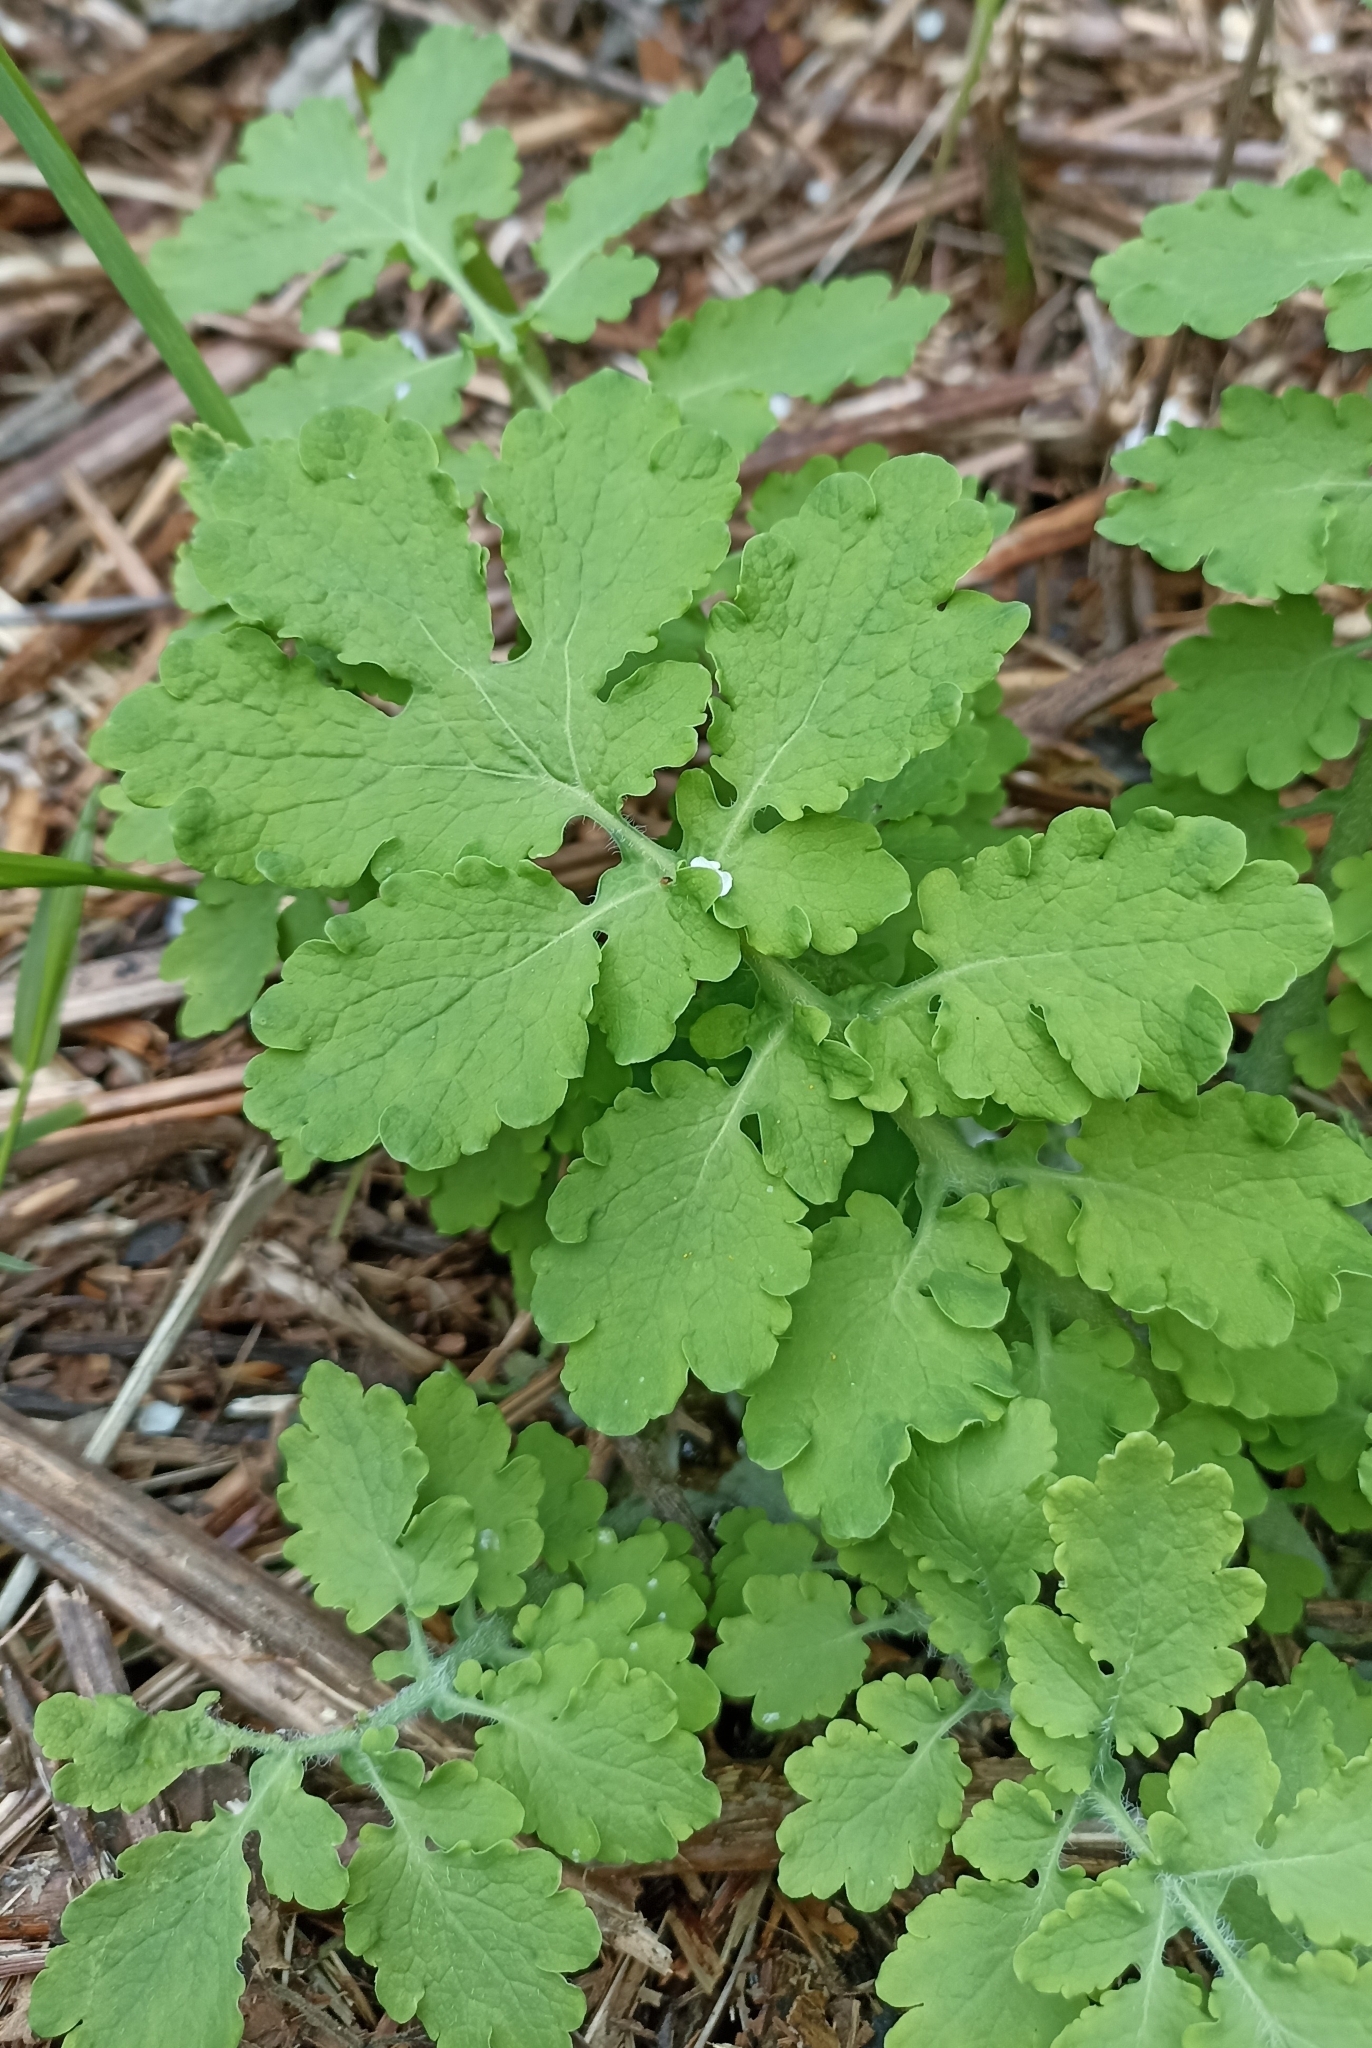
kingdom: Plantae
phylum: Tracheophyta
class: Magnoliopsida
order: Ranunculales
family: Papaveraceae
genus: Chelidonium
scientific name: Chelidonium majus
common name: Greater celandine
